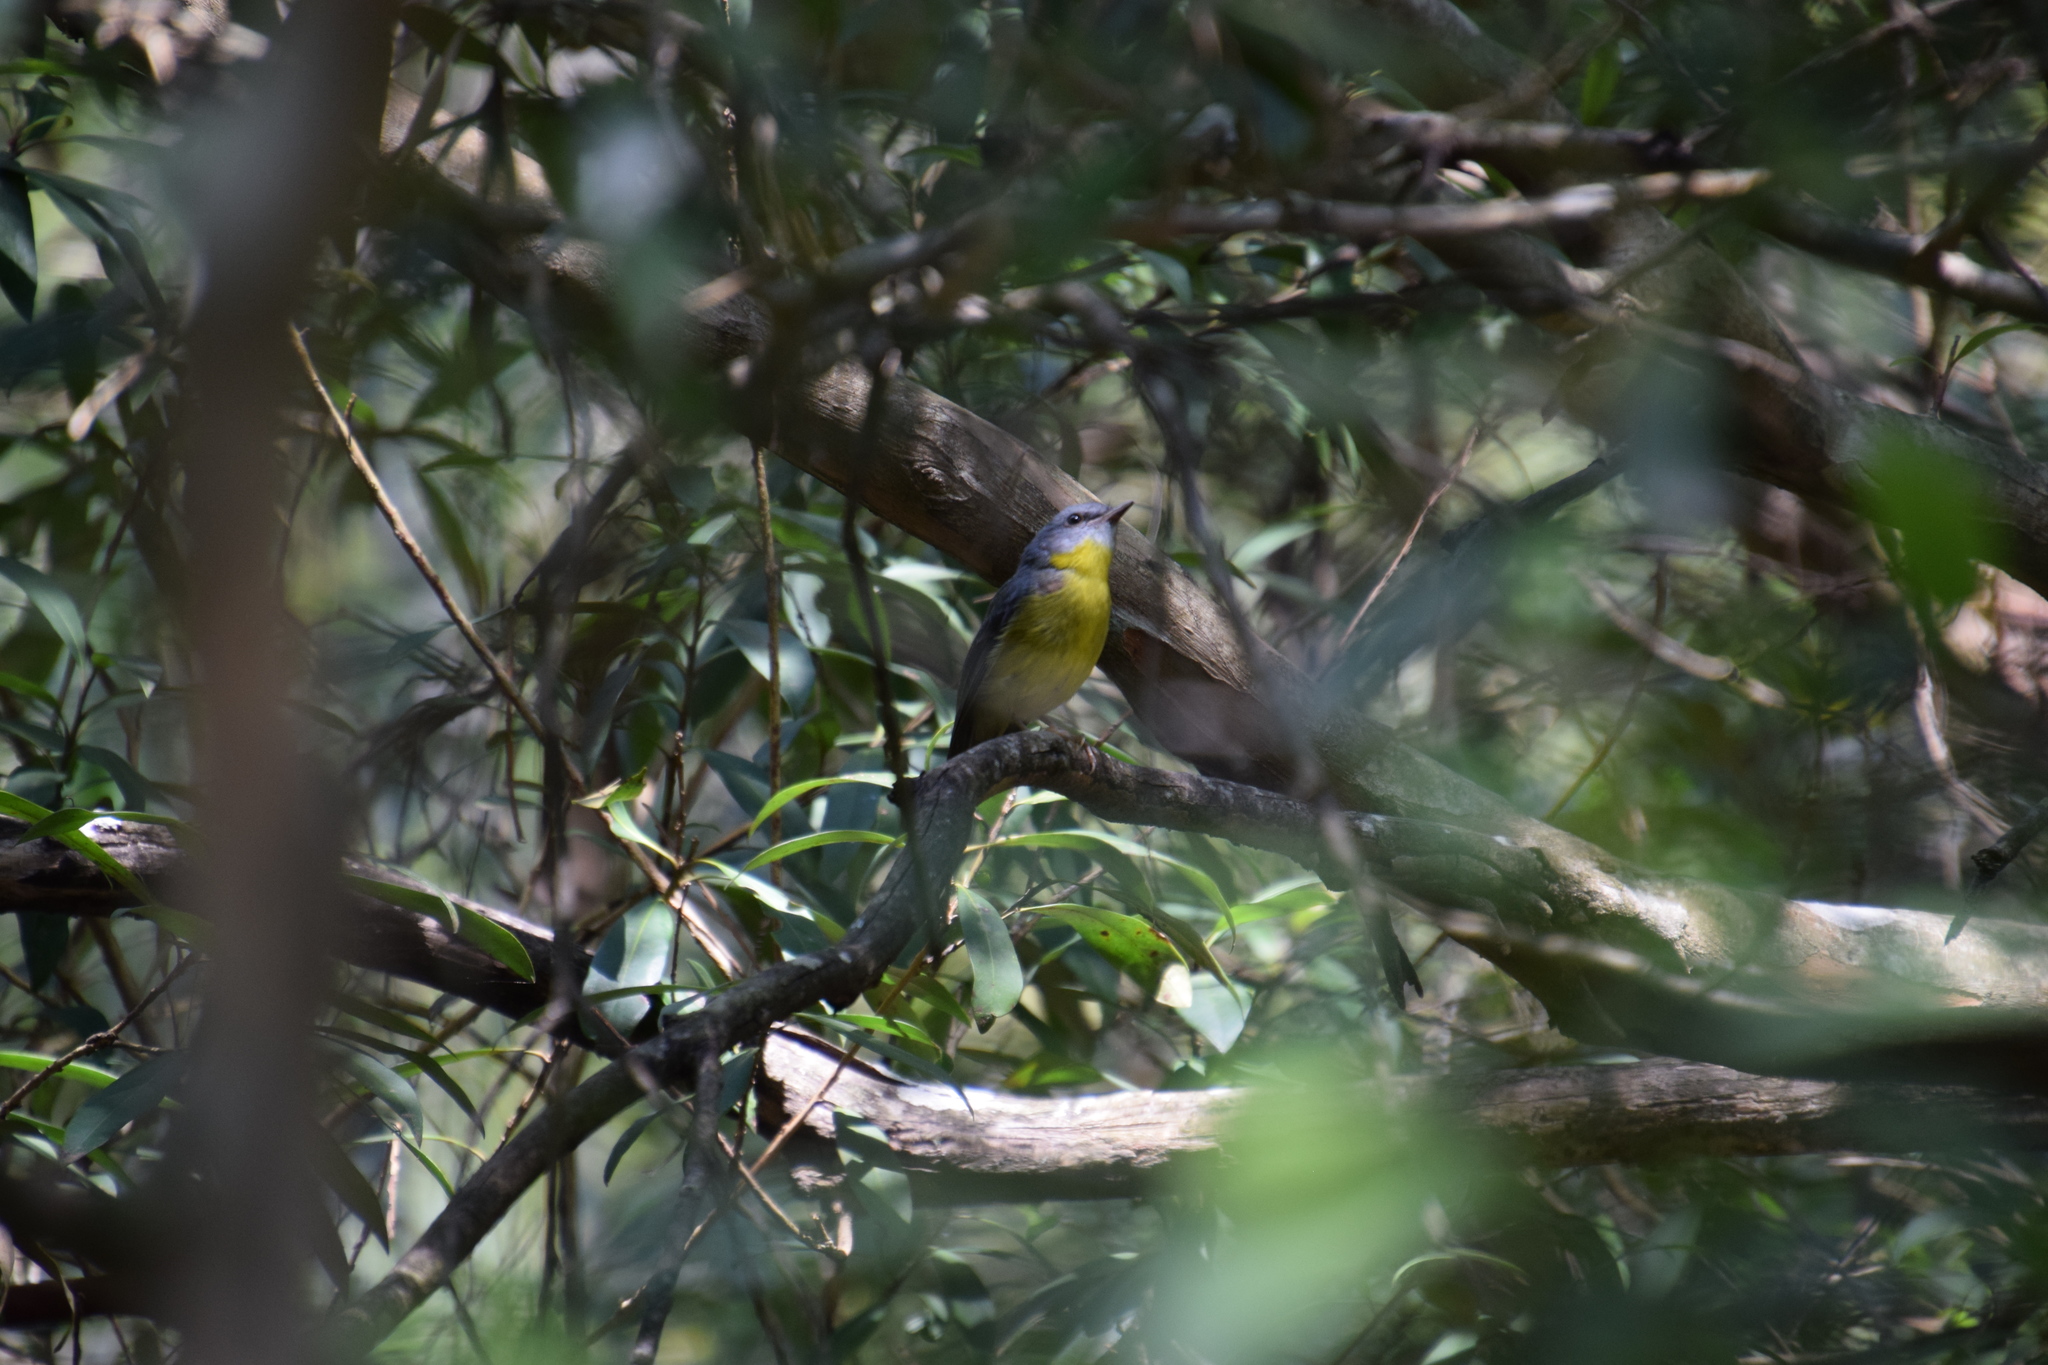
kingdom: Animalia
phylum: Chordata
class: Aves
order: Passeriformes
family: Petroicidae
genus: Eopsaltria
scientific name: Eopsaltria australis
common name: Eastern yellow robin
